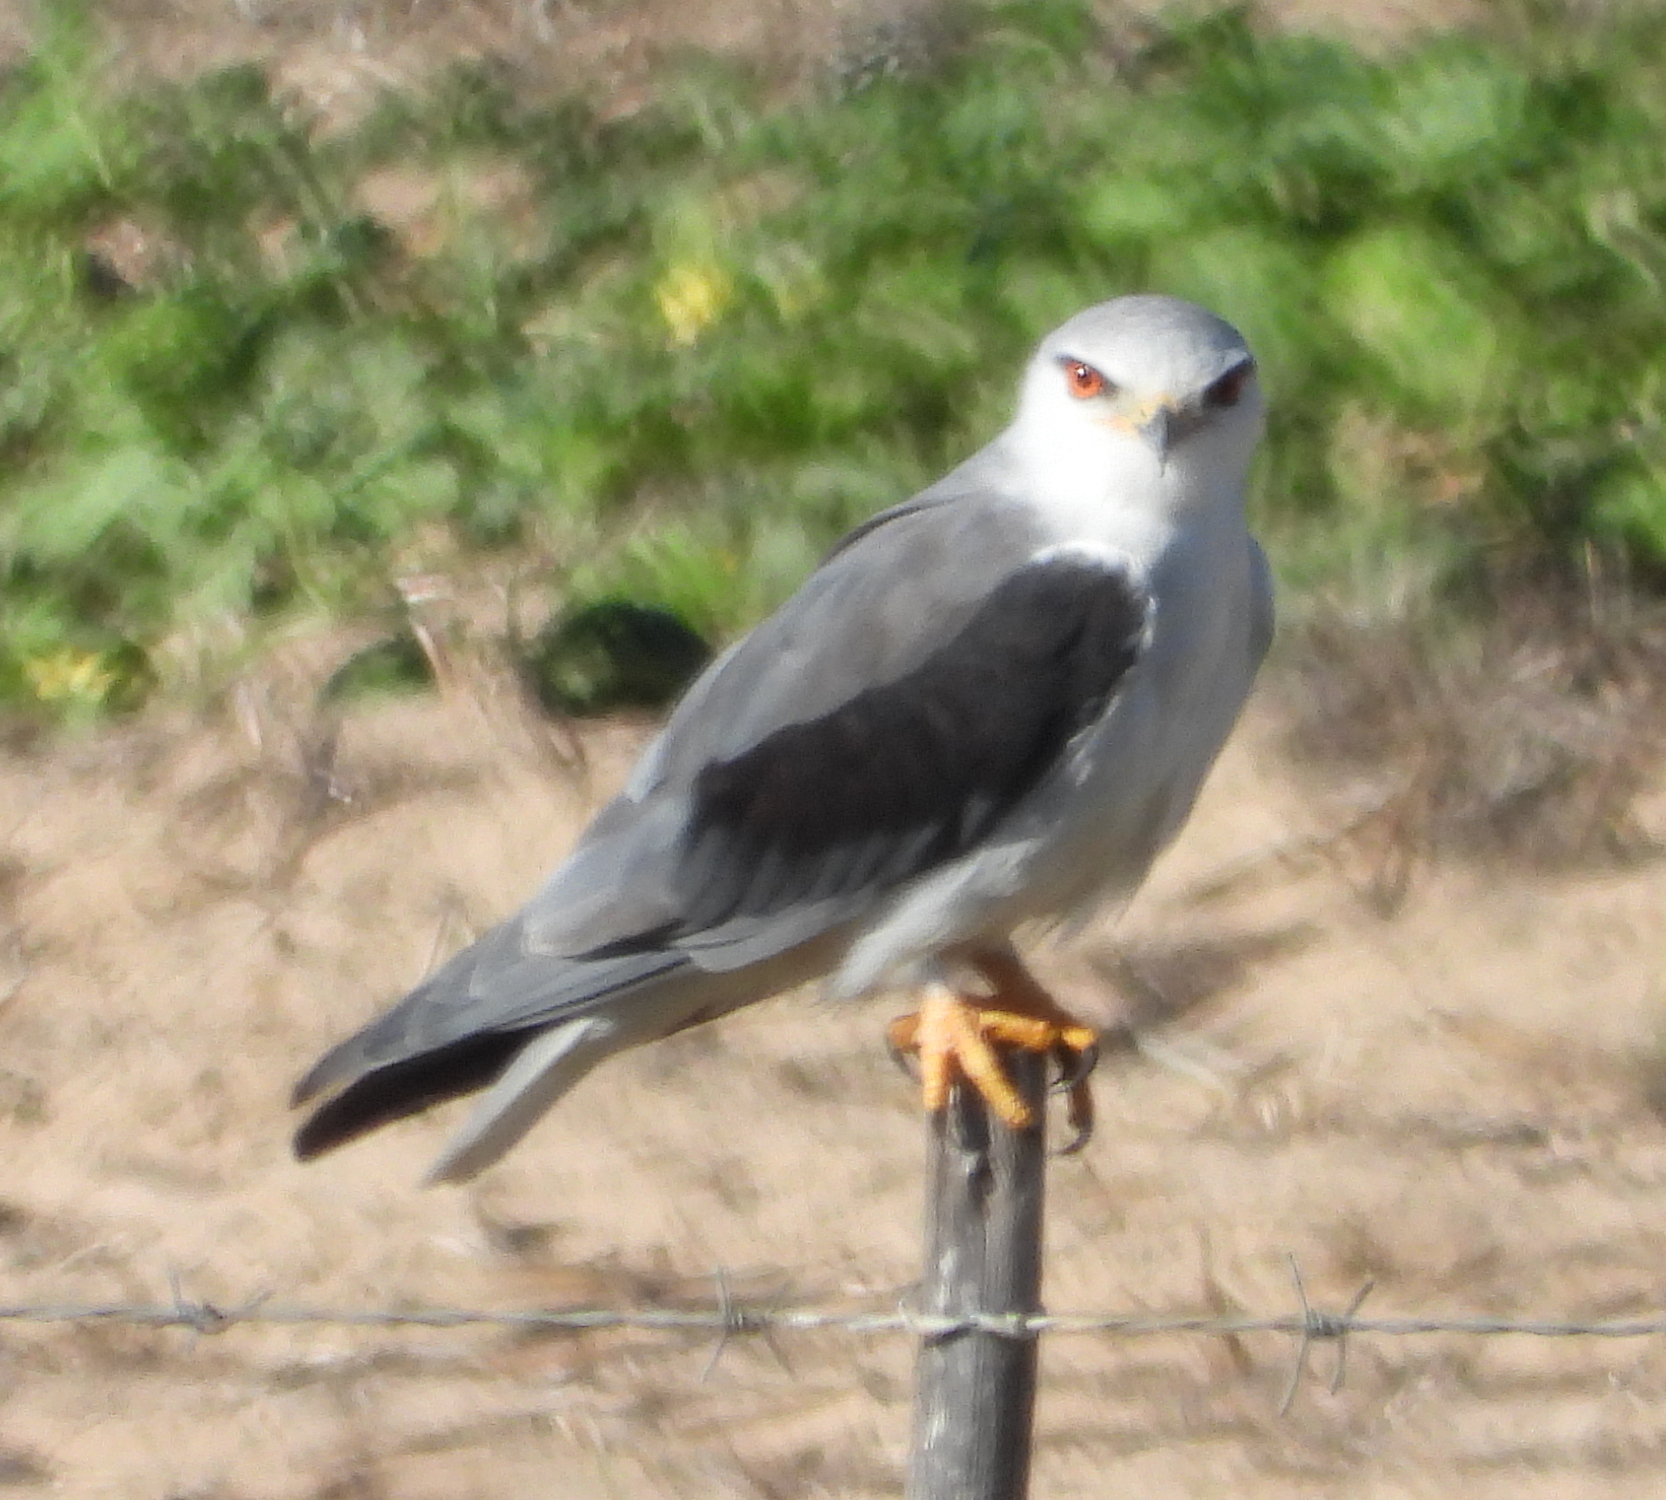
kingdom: Animalia
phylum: Chordata
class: Aves
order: Accipitriformes
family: Accipitridae
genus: Elanus
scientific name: Elanus caeruleus
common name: Black-winged kite
